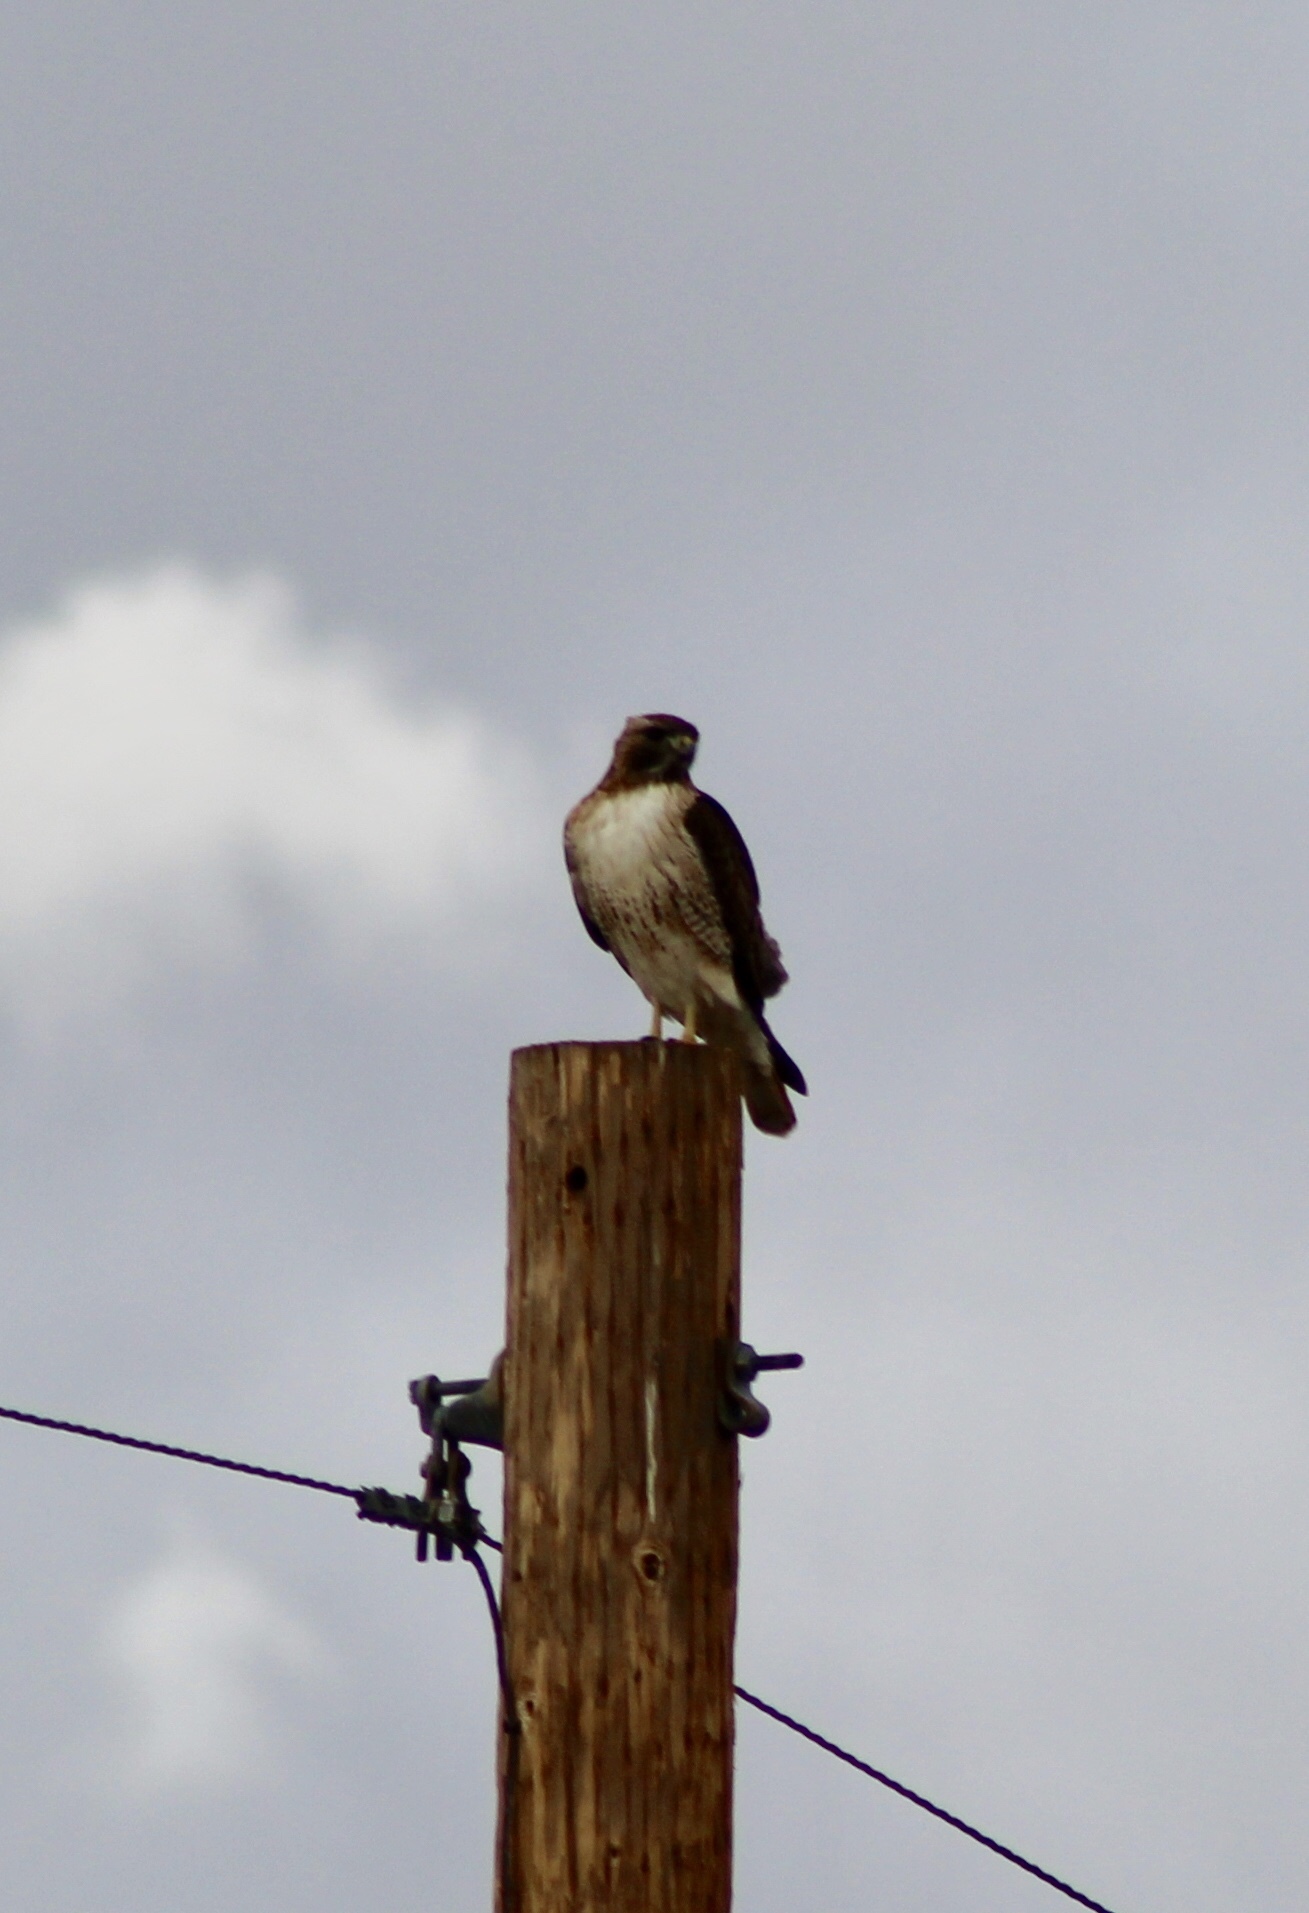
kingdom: Animalia
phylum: Chordata
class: Aves
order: Accipitriformes
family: Accipitridae
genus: Buteo
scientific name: Buteo jamaicensis
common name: Red-tailed hawk
